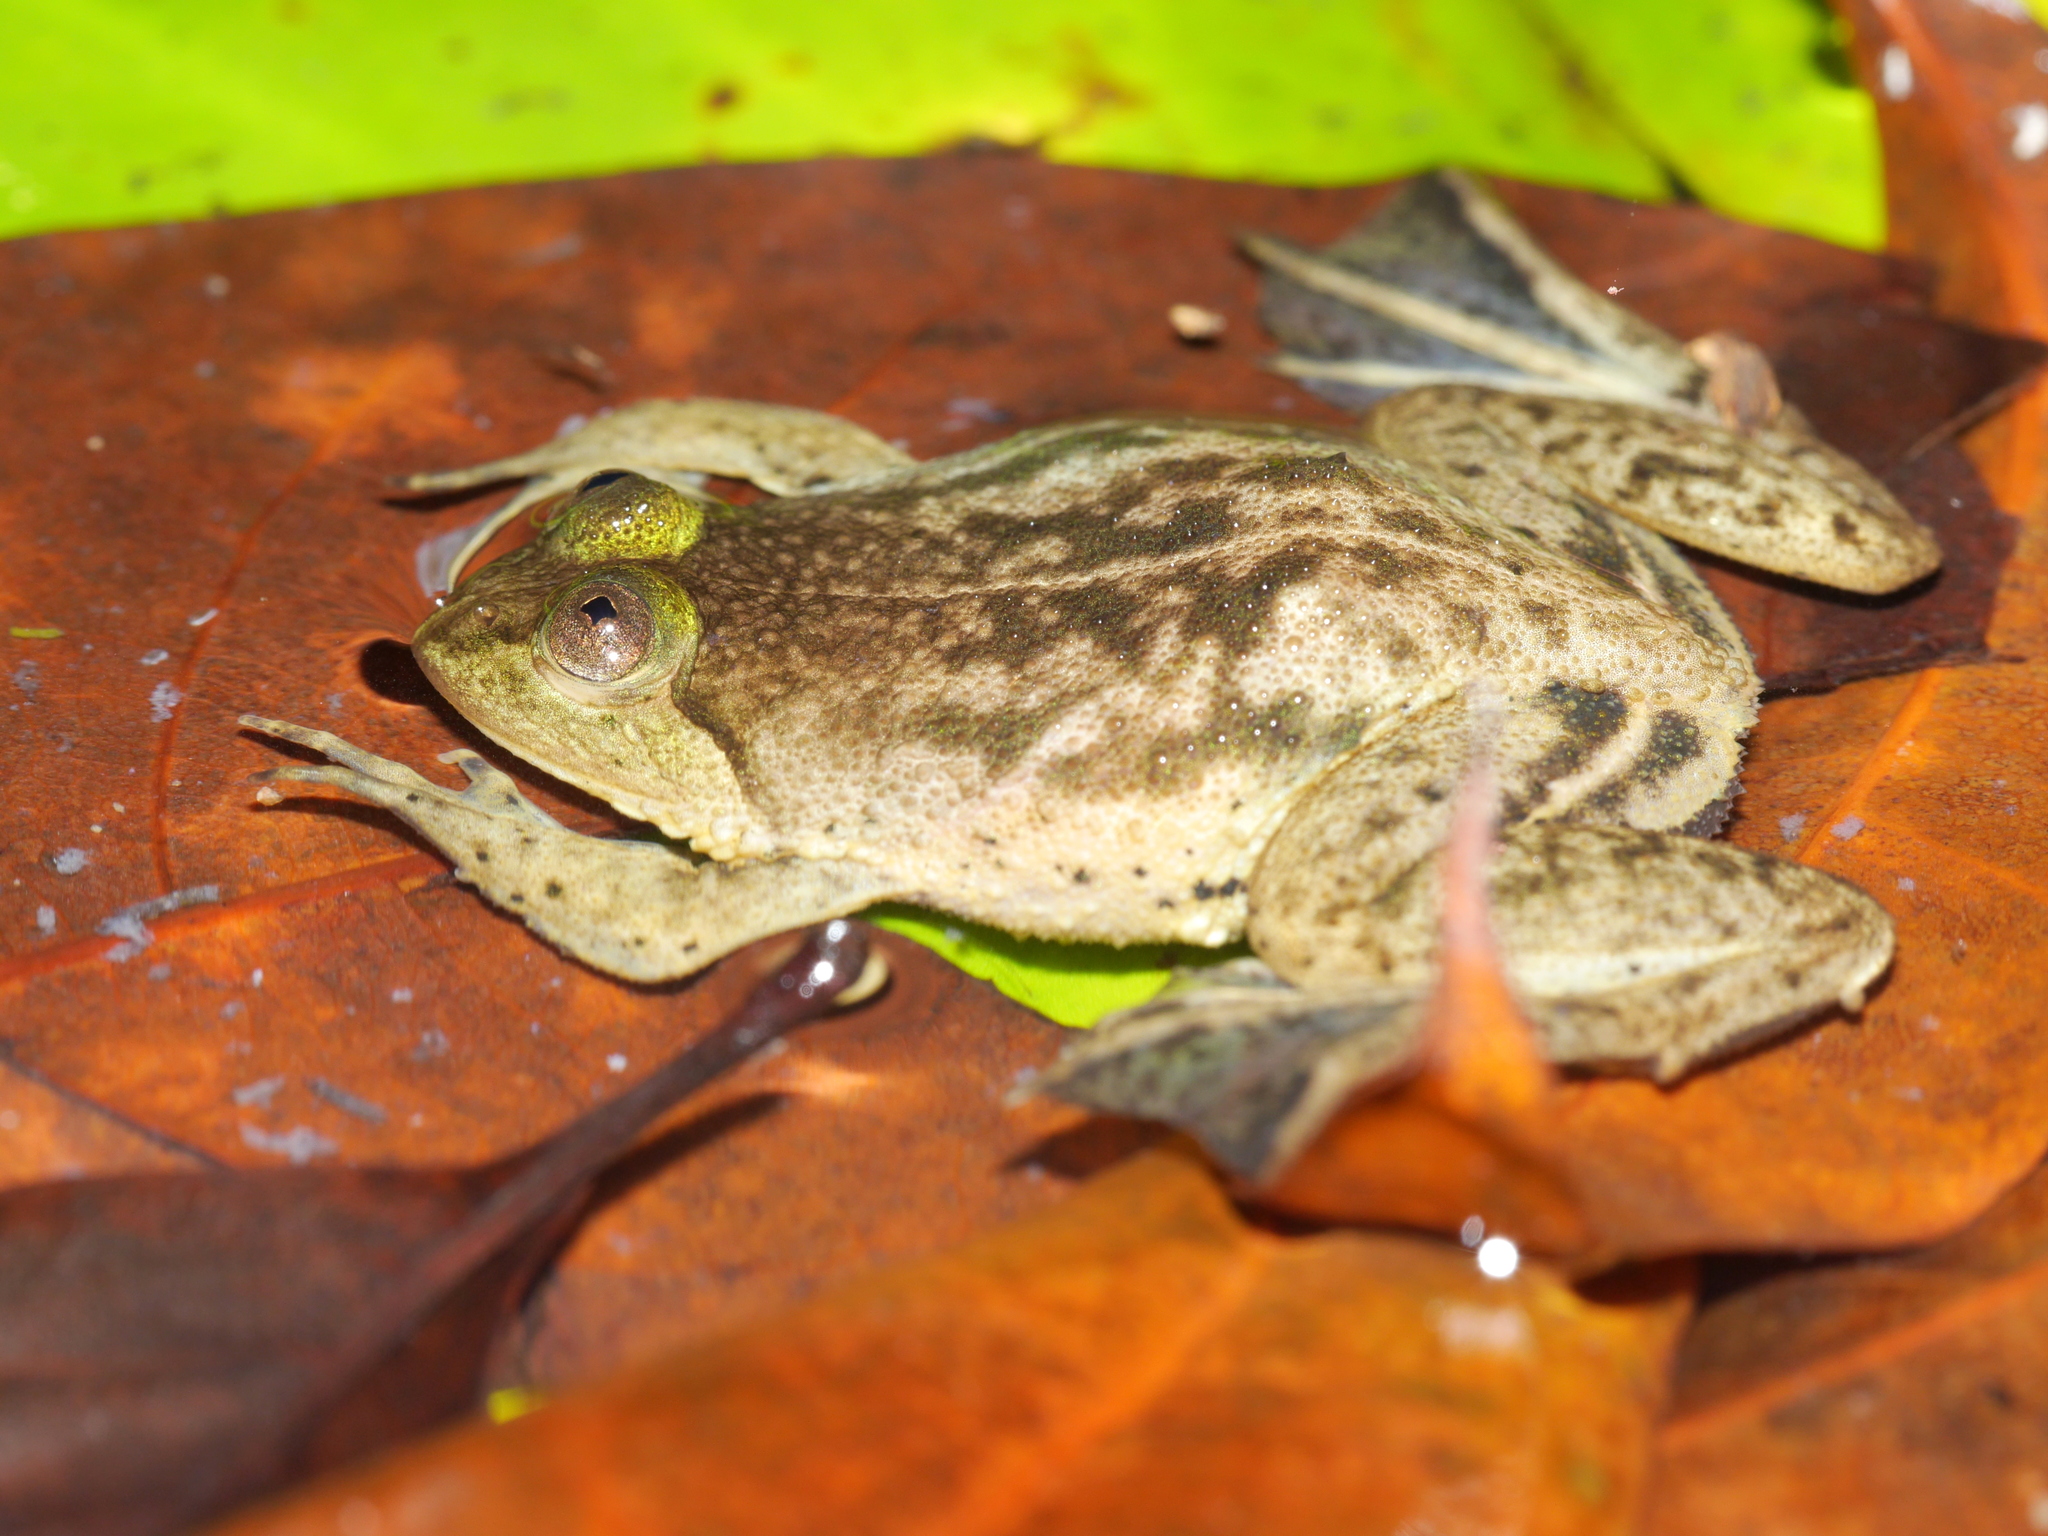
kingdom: Animalia
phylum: Chordata
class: Amphibia
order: Anura
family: Dicroglossidae
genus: Occidozyga
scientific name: Occidozyga lima
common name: Rough-skinned puddle frog/yellow-bellied puddle frog/green puddle frog/pointed-tongued floating frog
